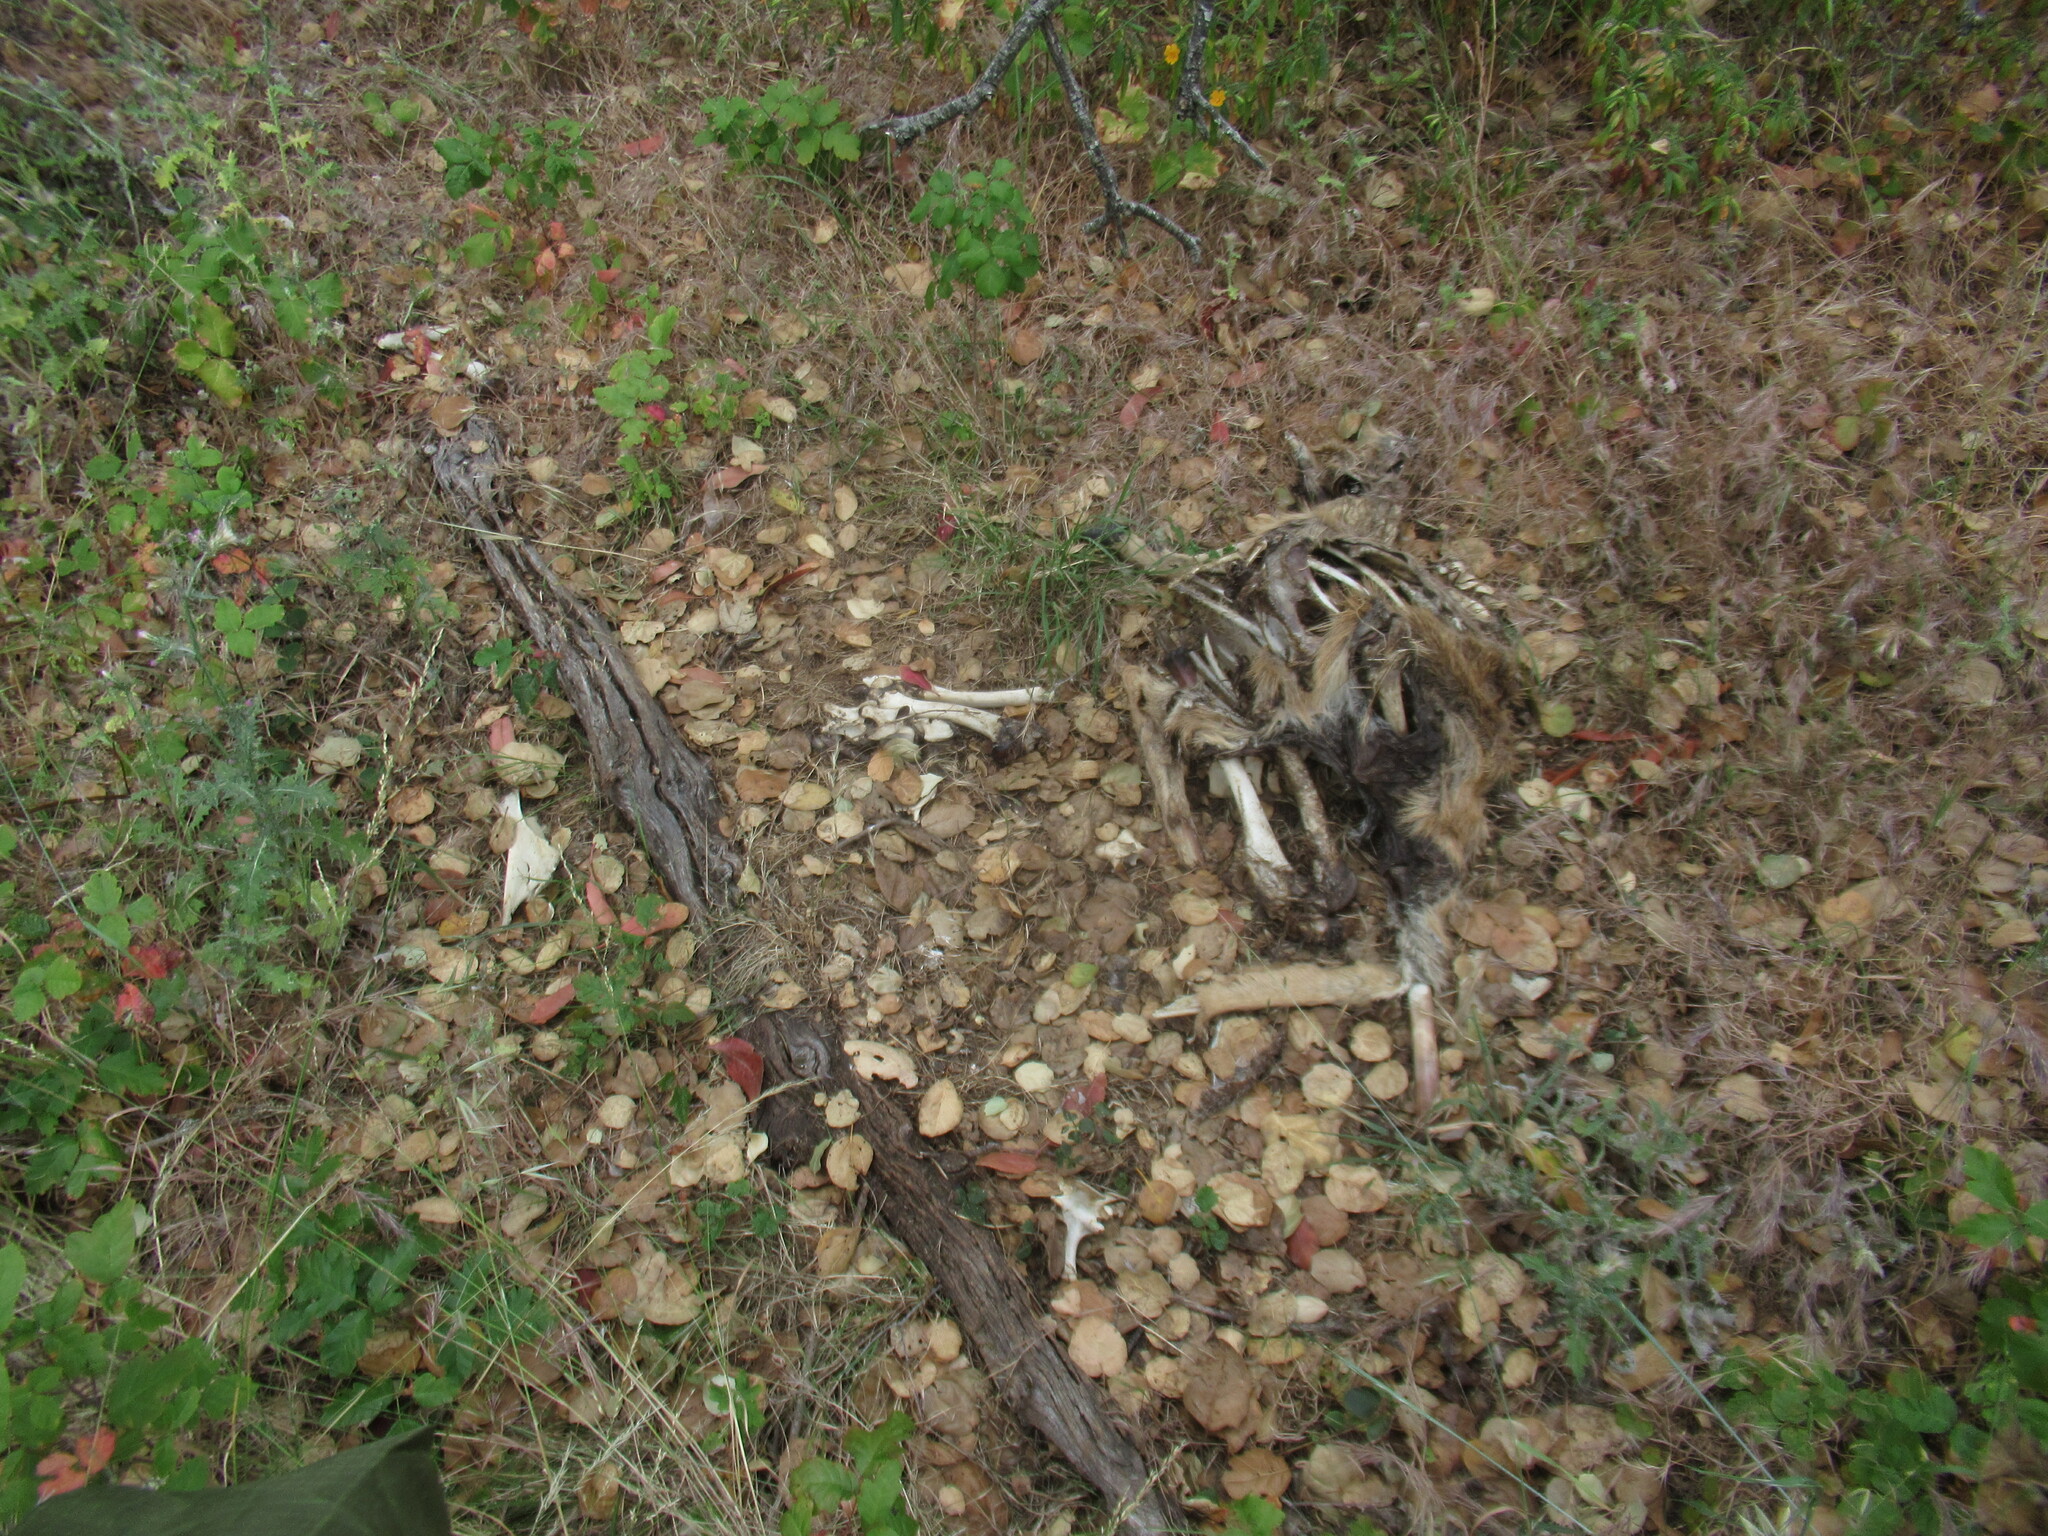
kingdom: Animalia
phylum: Chordata
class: Mammalia
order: Artiodactyla
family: Cervidae
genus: Odocoileus
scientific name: Odocoileus hemionus
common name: Mule deer
